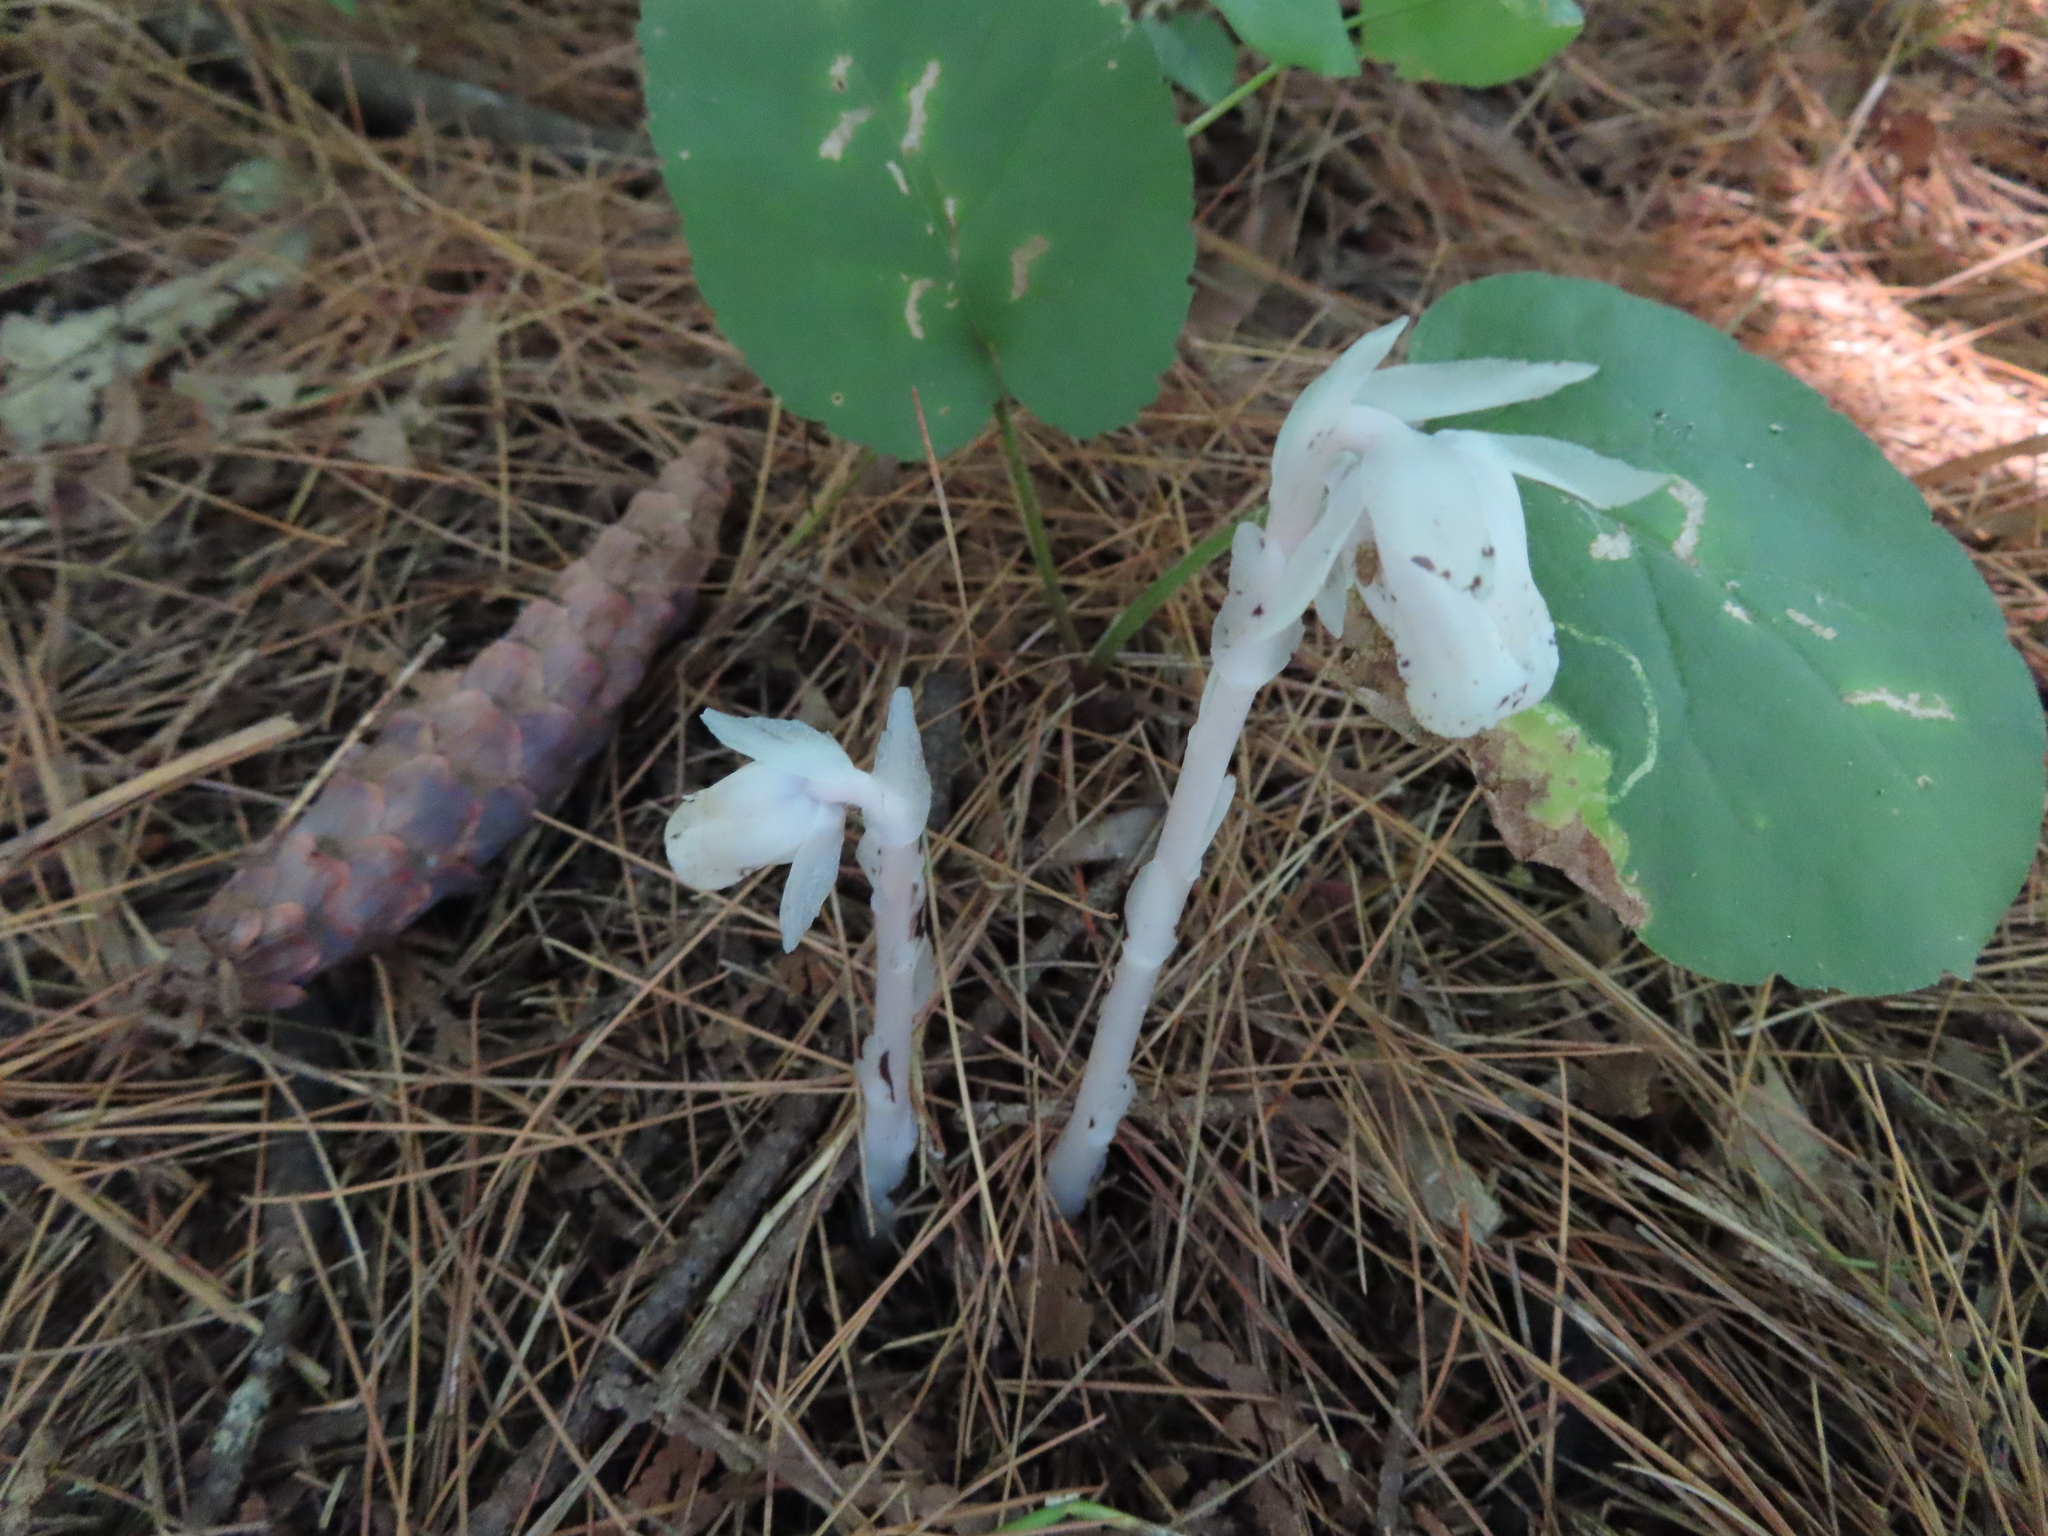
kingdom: Plantae
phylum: Tracheophyta
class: Magnoliopsida
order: Ericales
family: Ericaceae
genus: Monotropa
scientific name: Monotropa uniflora
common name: Convulsion root
